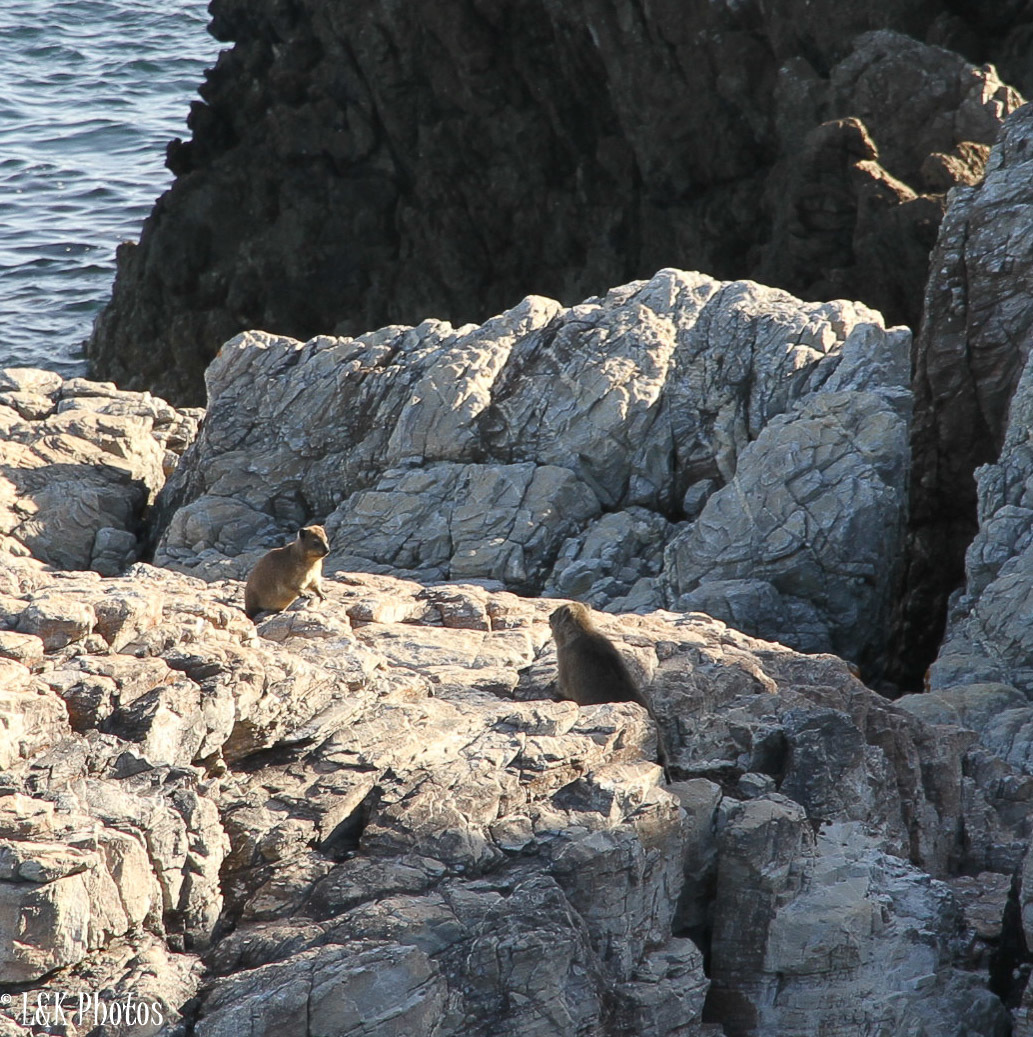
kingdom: Animalia
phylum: Chordata
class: Mammalia
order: Hyracoidea
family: Procaviidae
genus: Procavia
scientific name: Procavia capensis
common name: Rock hyrax
